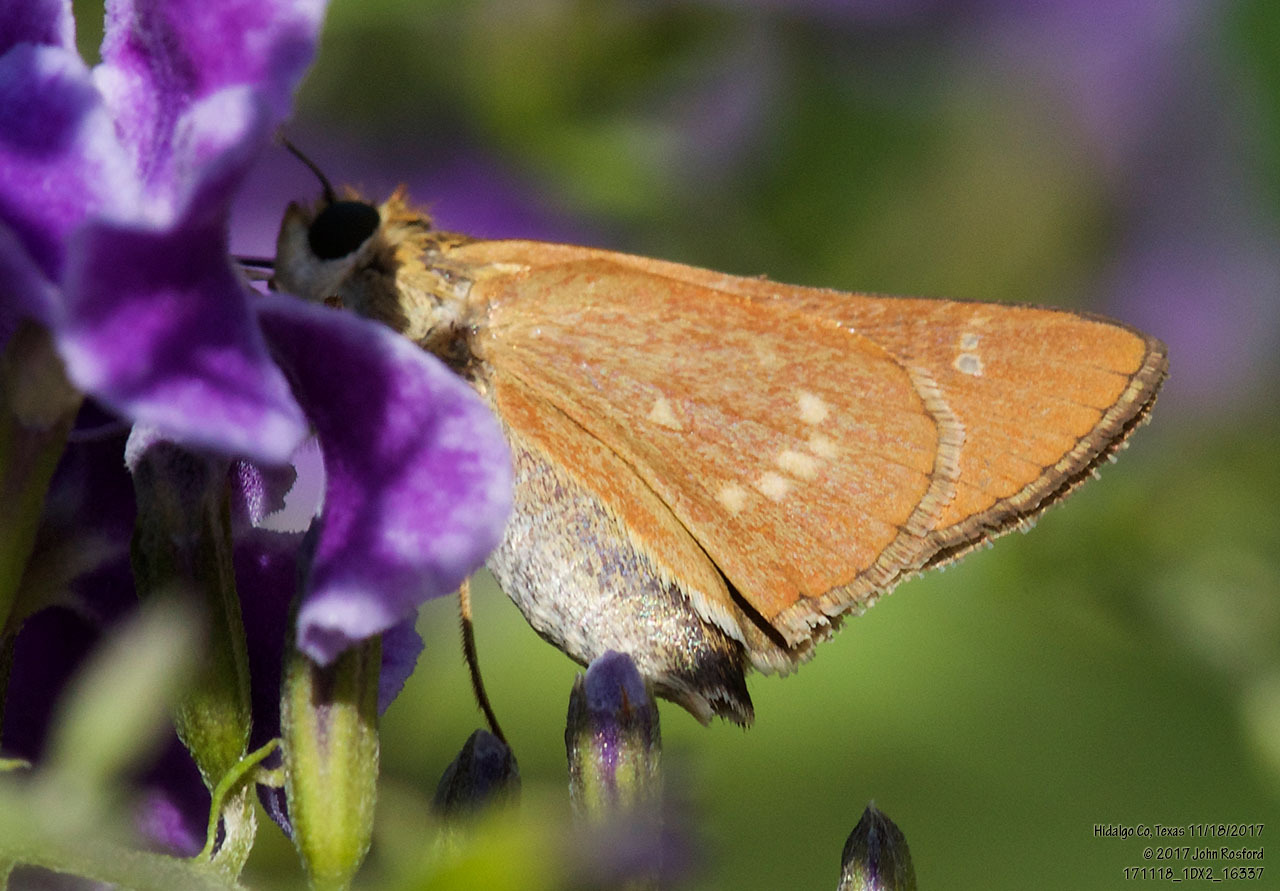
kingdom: Animalia
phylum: Arthropoda
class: Insecta
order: Lepidoptera
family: Hesperiidae
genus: Mellana
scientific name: Mellana eulogius
